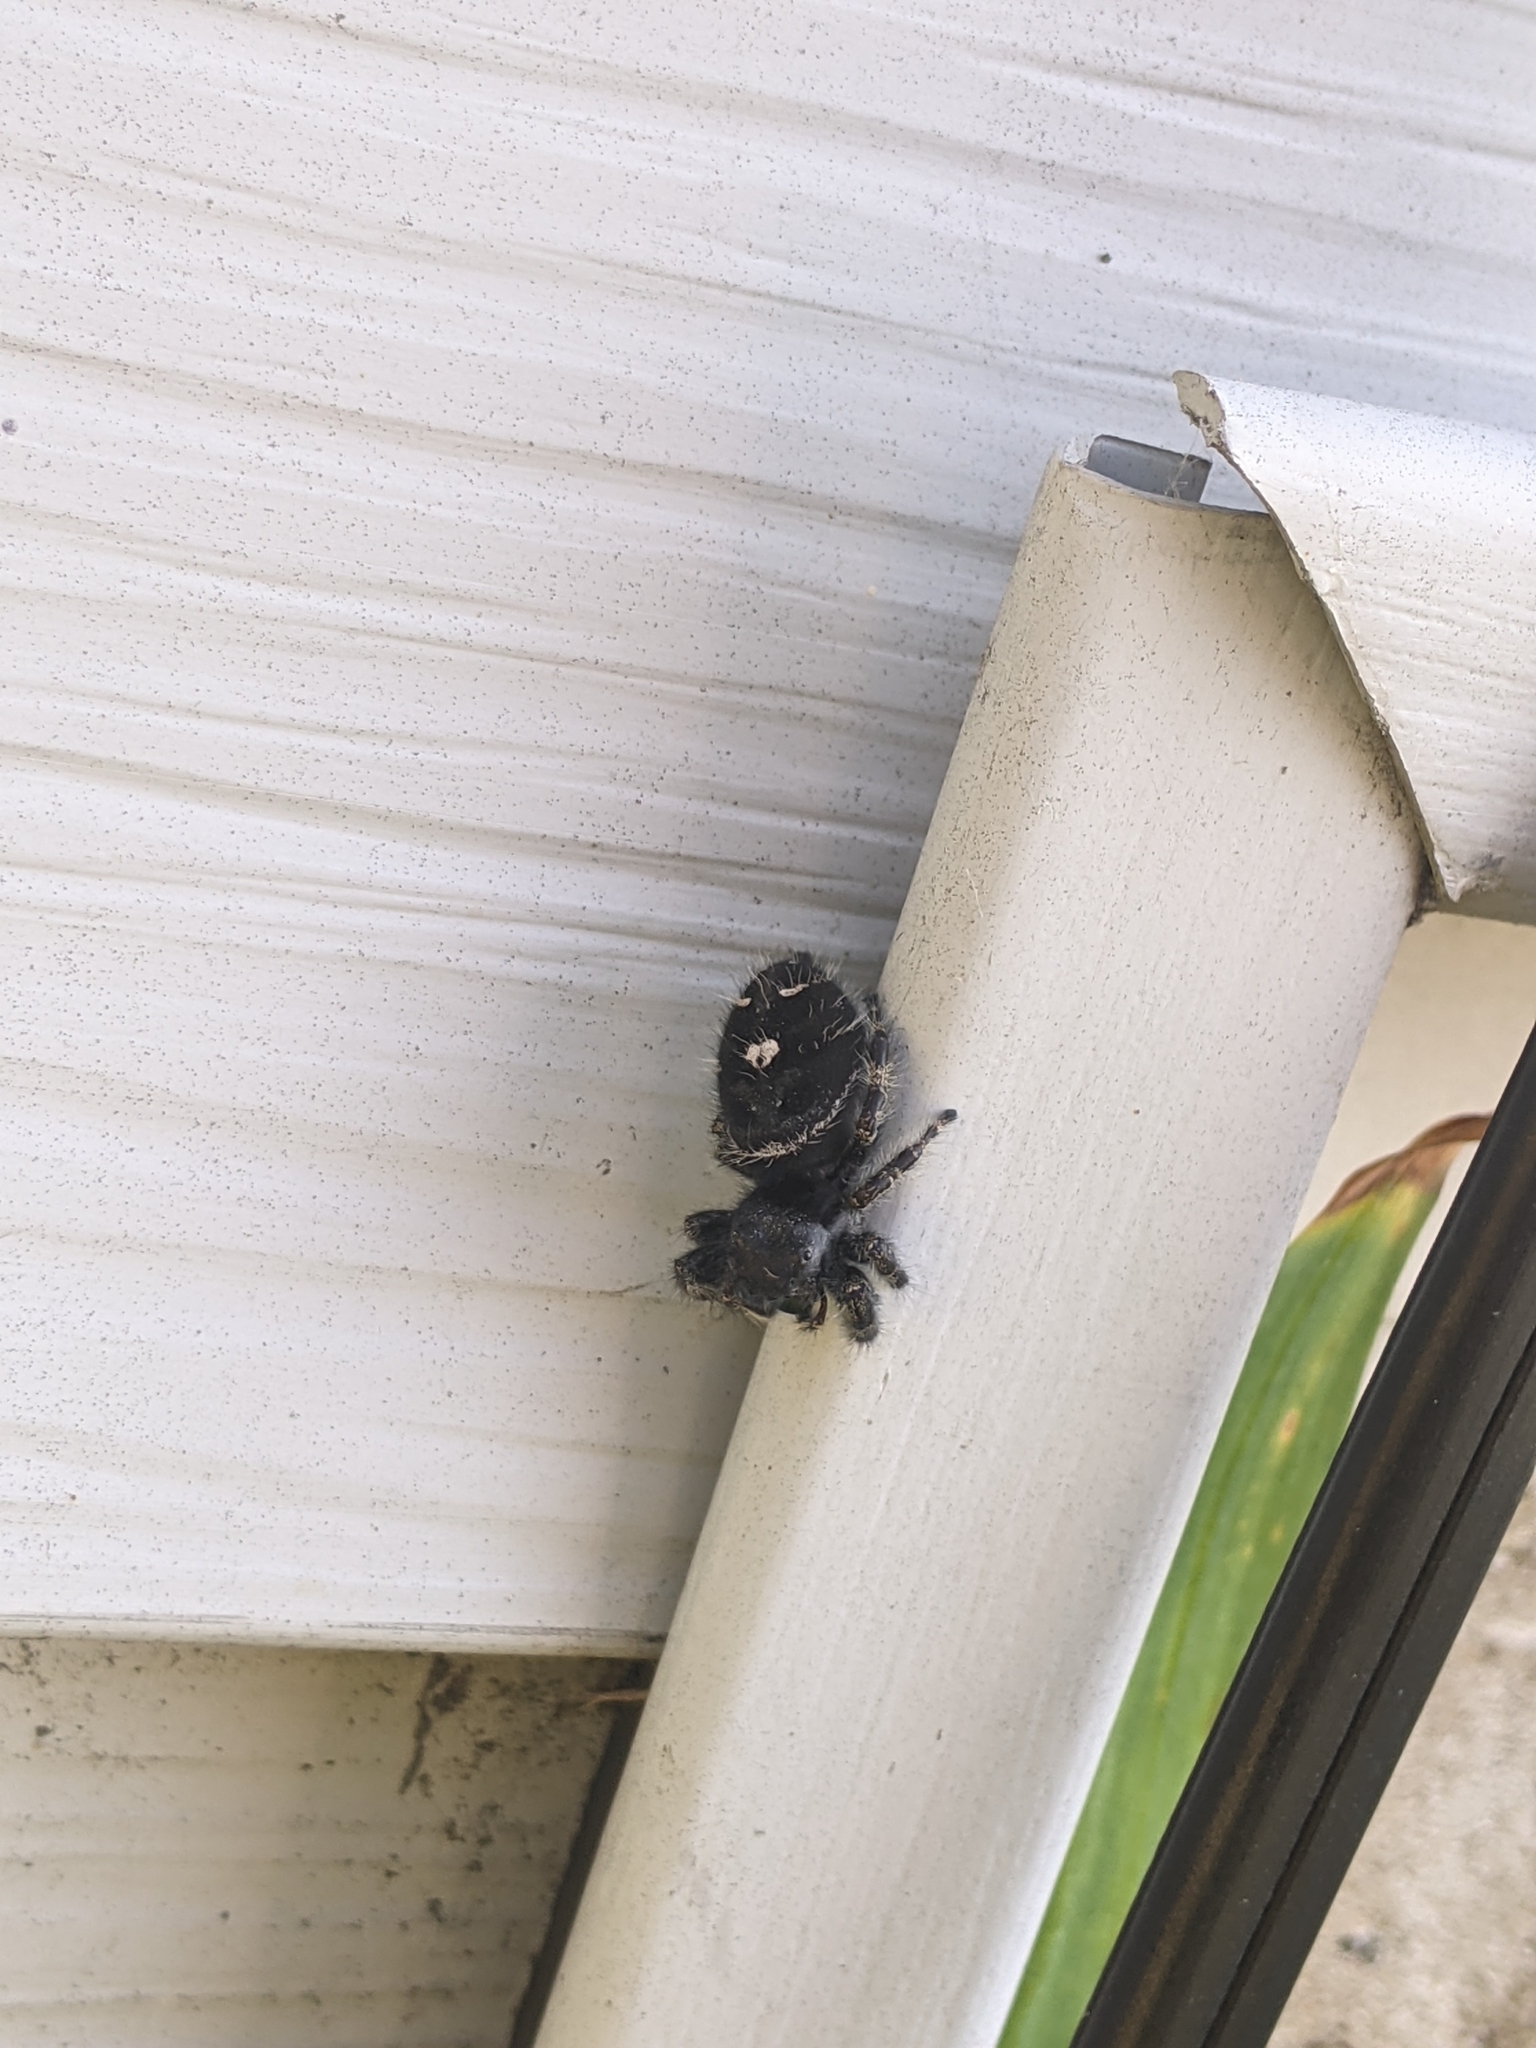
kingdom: Animalia
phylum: Arthropoda
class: Arachnida
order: Araneae
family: Salticidae
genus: Phidippus
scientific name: Phidippus audax
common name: Bold jumper
